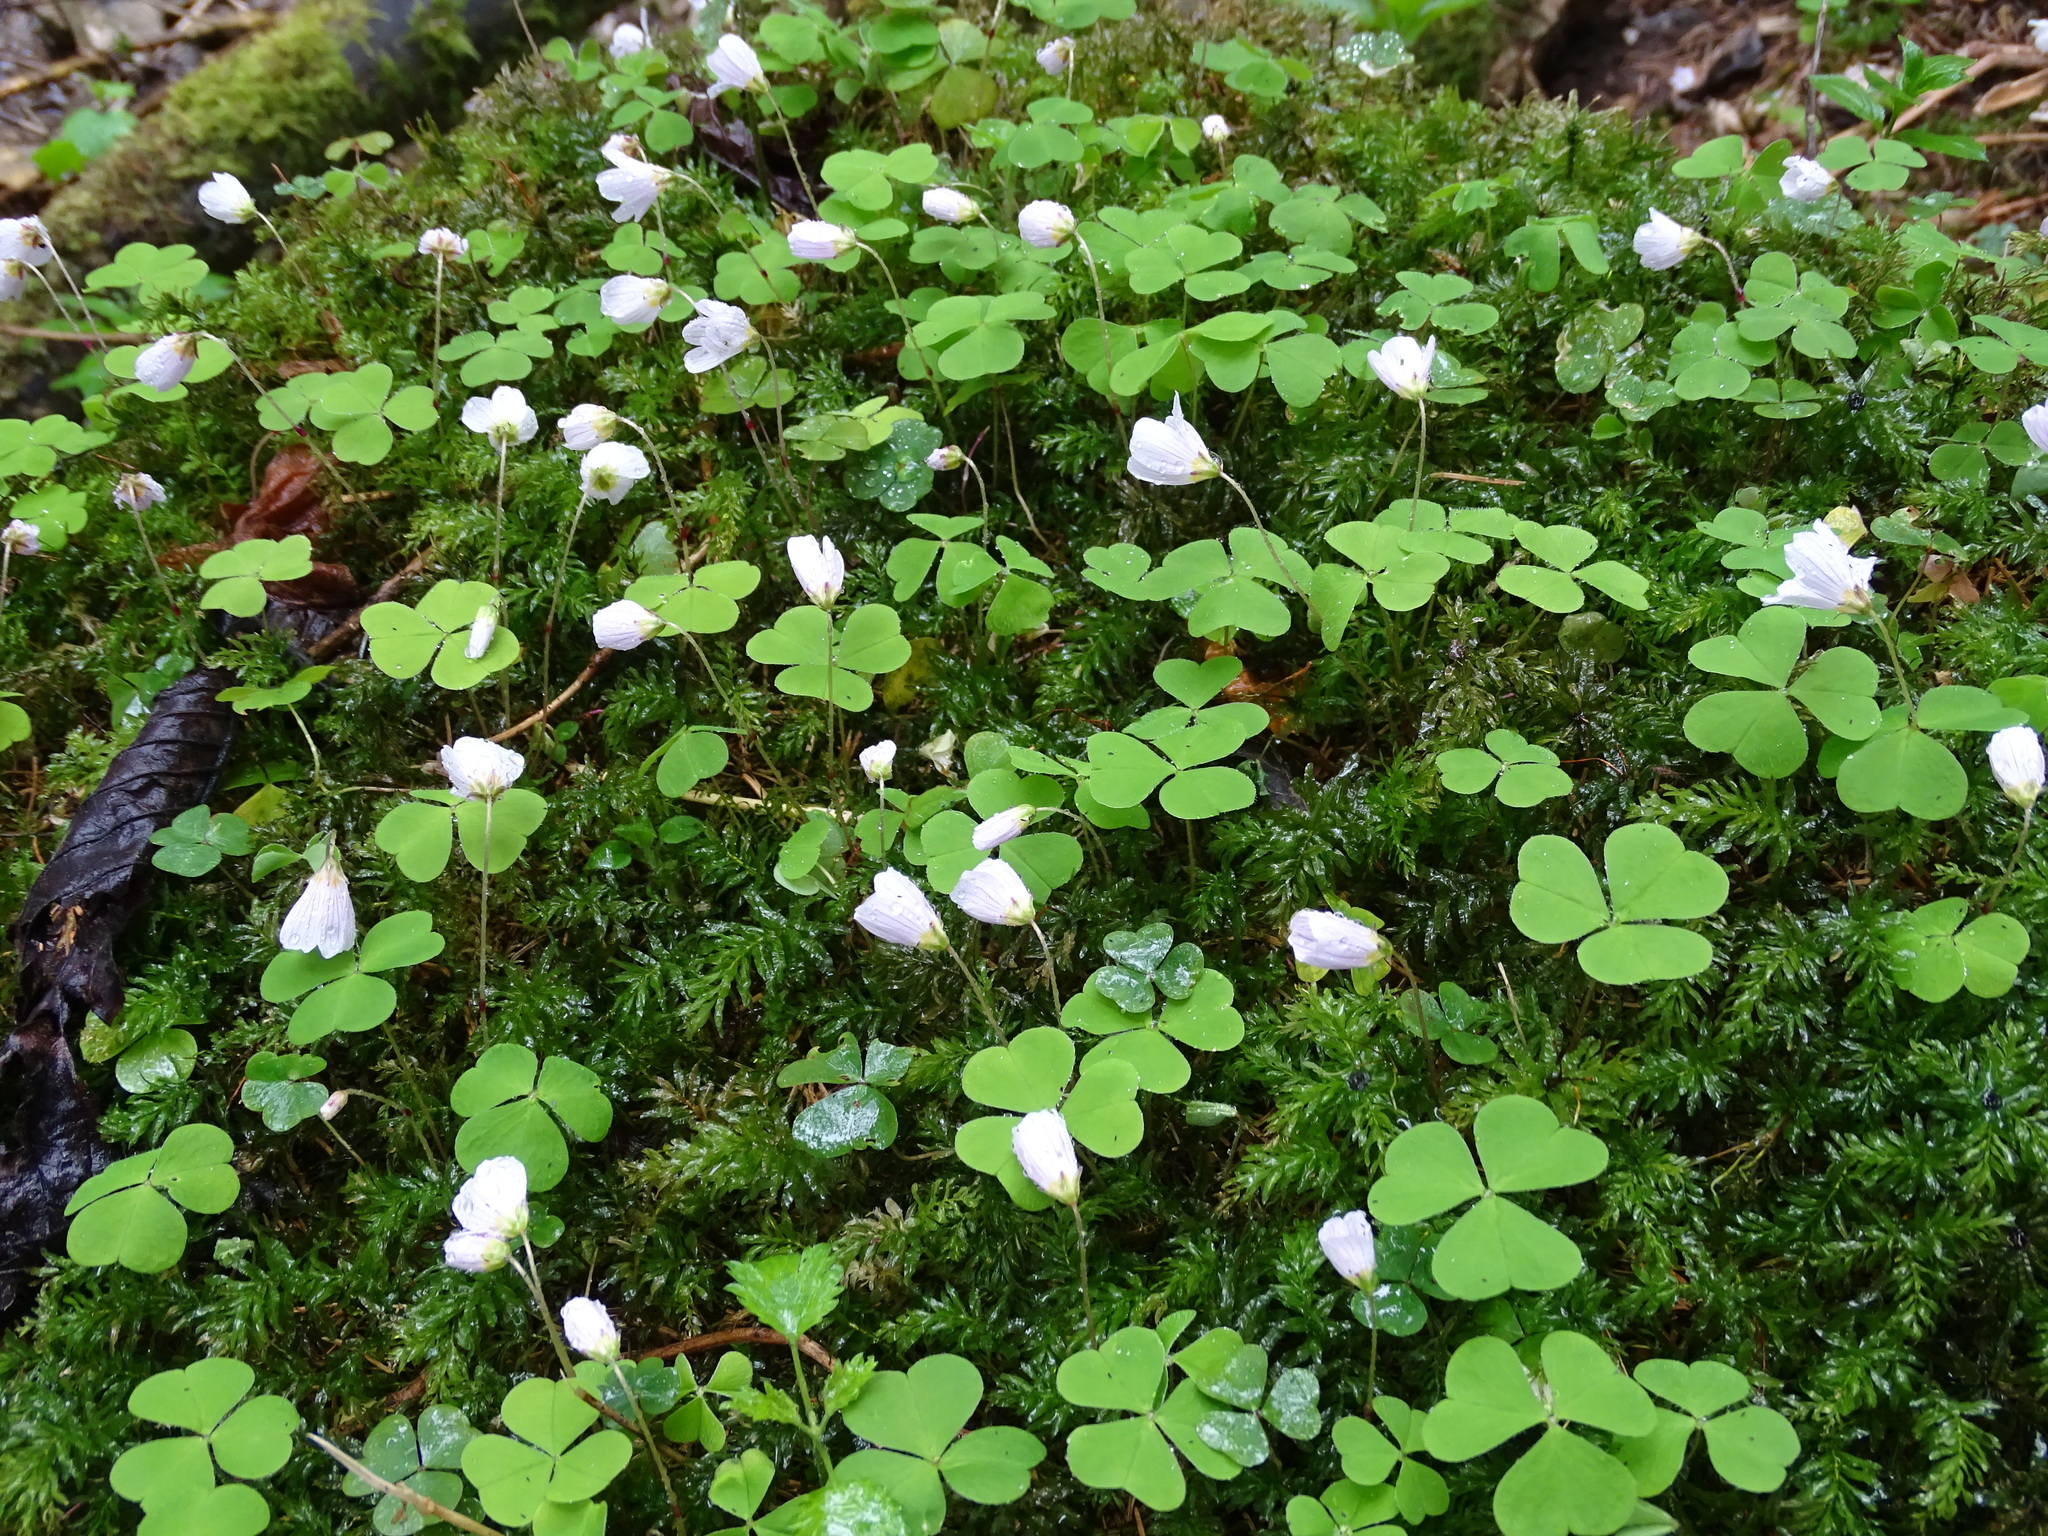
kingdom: Plantae
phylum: Tracheophyta
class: Magnoliopsida
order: Oxalidales
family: Oxalidaceae
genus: Oxalis
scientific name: Oxalis acetosella
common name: Wood-sorrel
